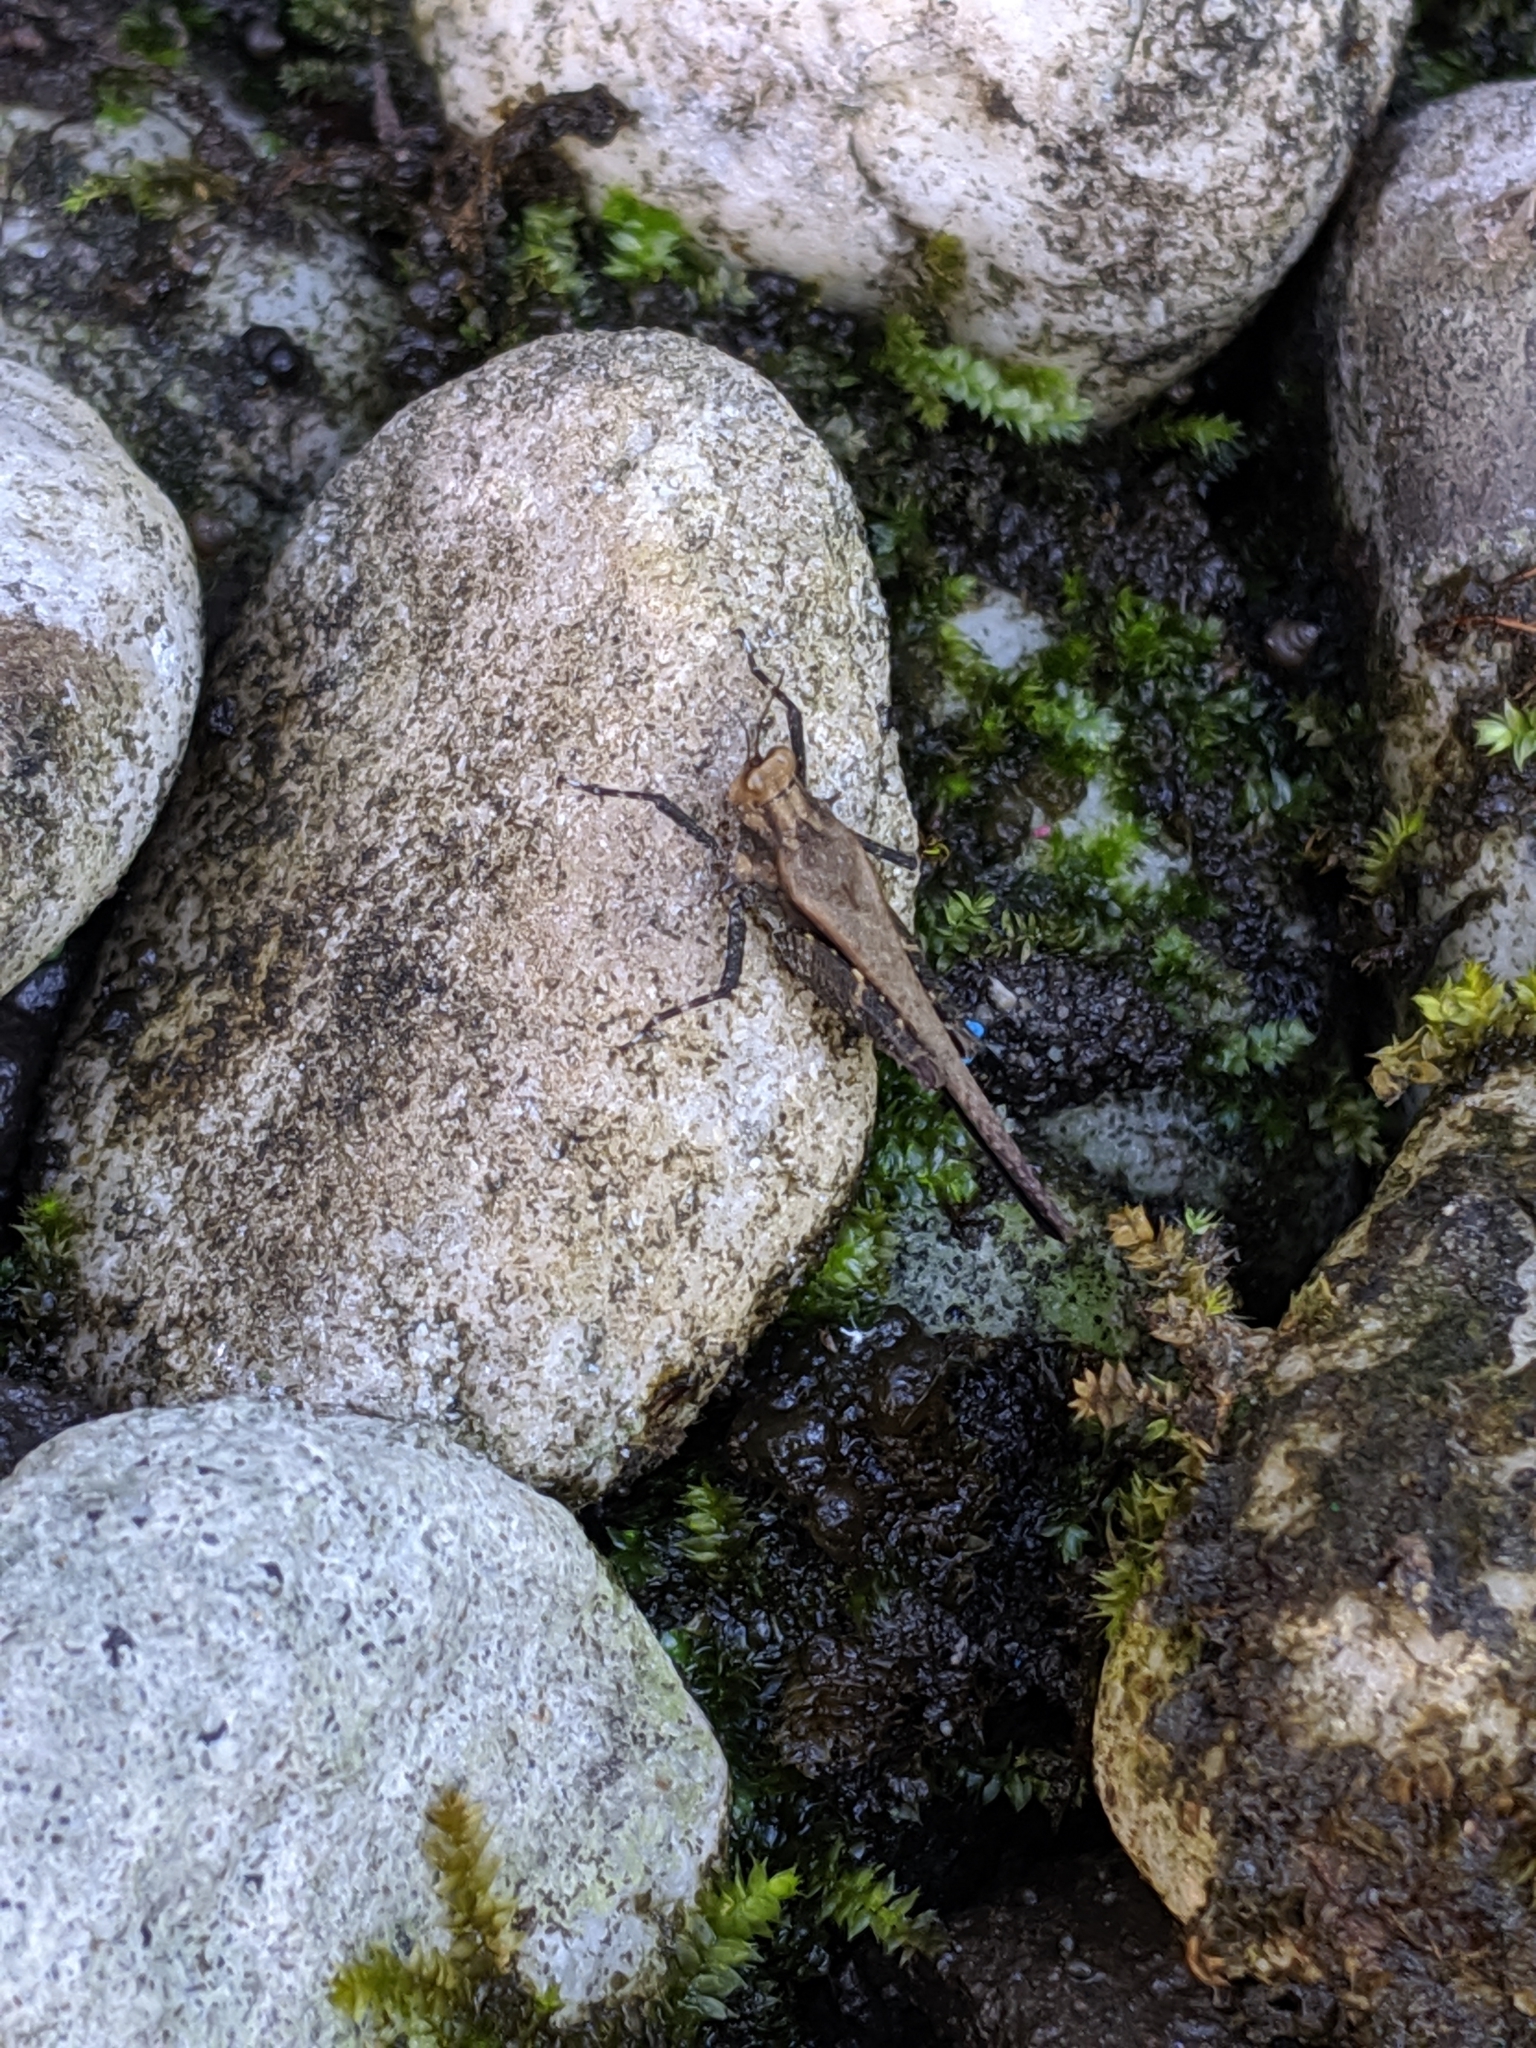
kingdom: Animalia
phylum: Arthropoda
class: Insecta
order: Orthoptera
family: Tetrigidae
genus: Criotettix
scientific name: Criotettix bispinosus
